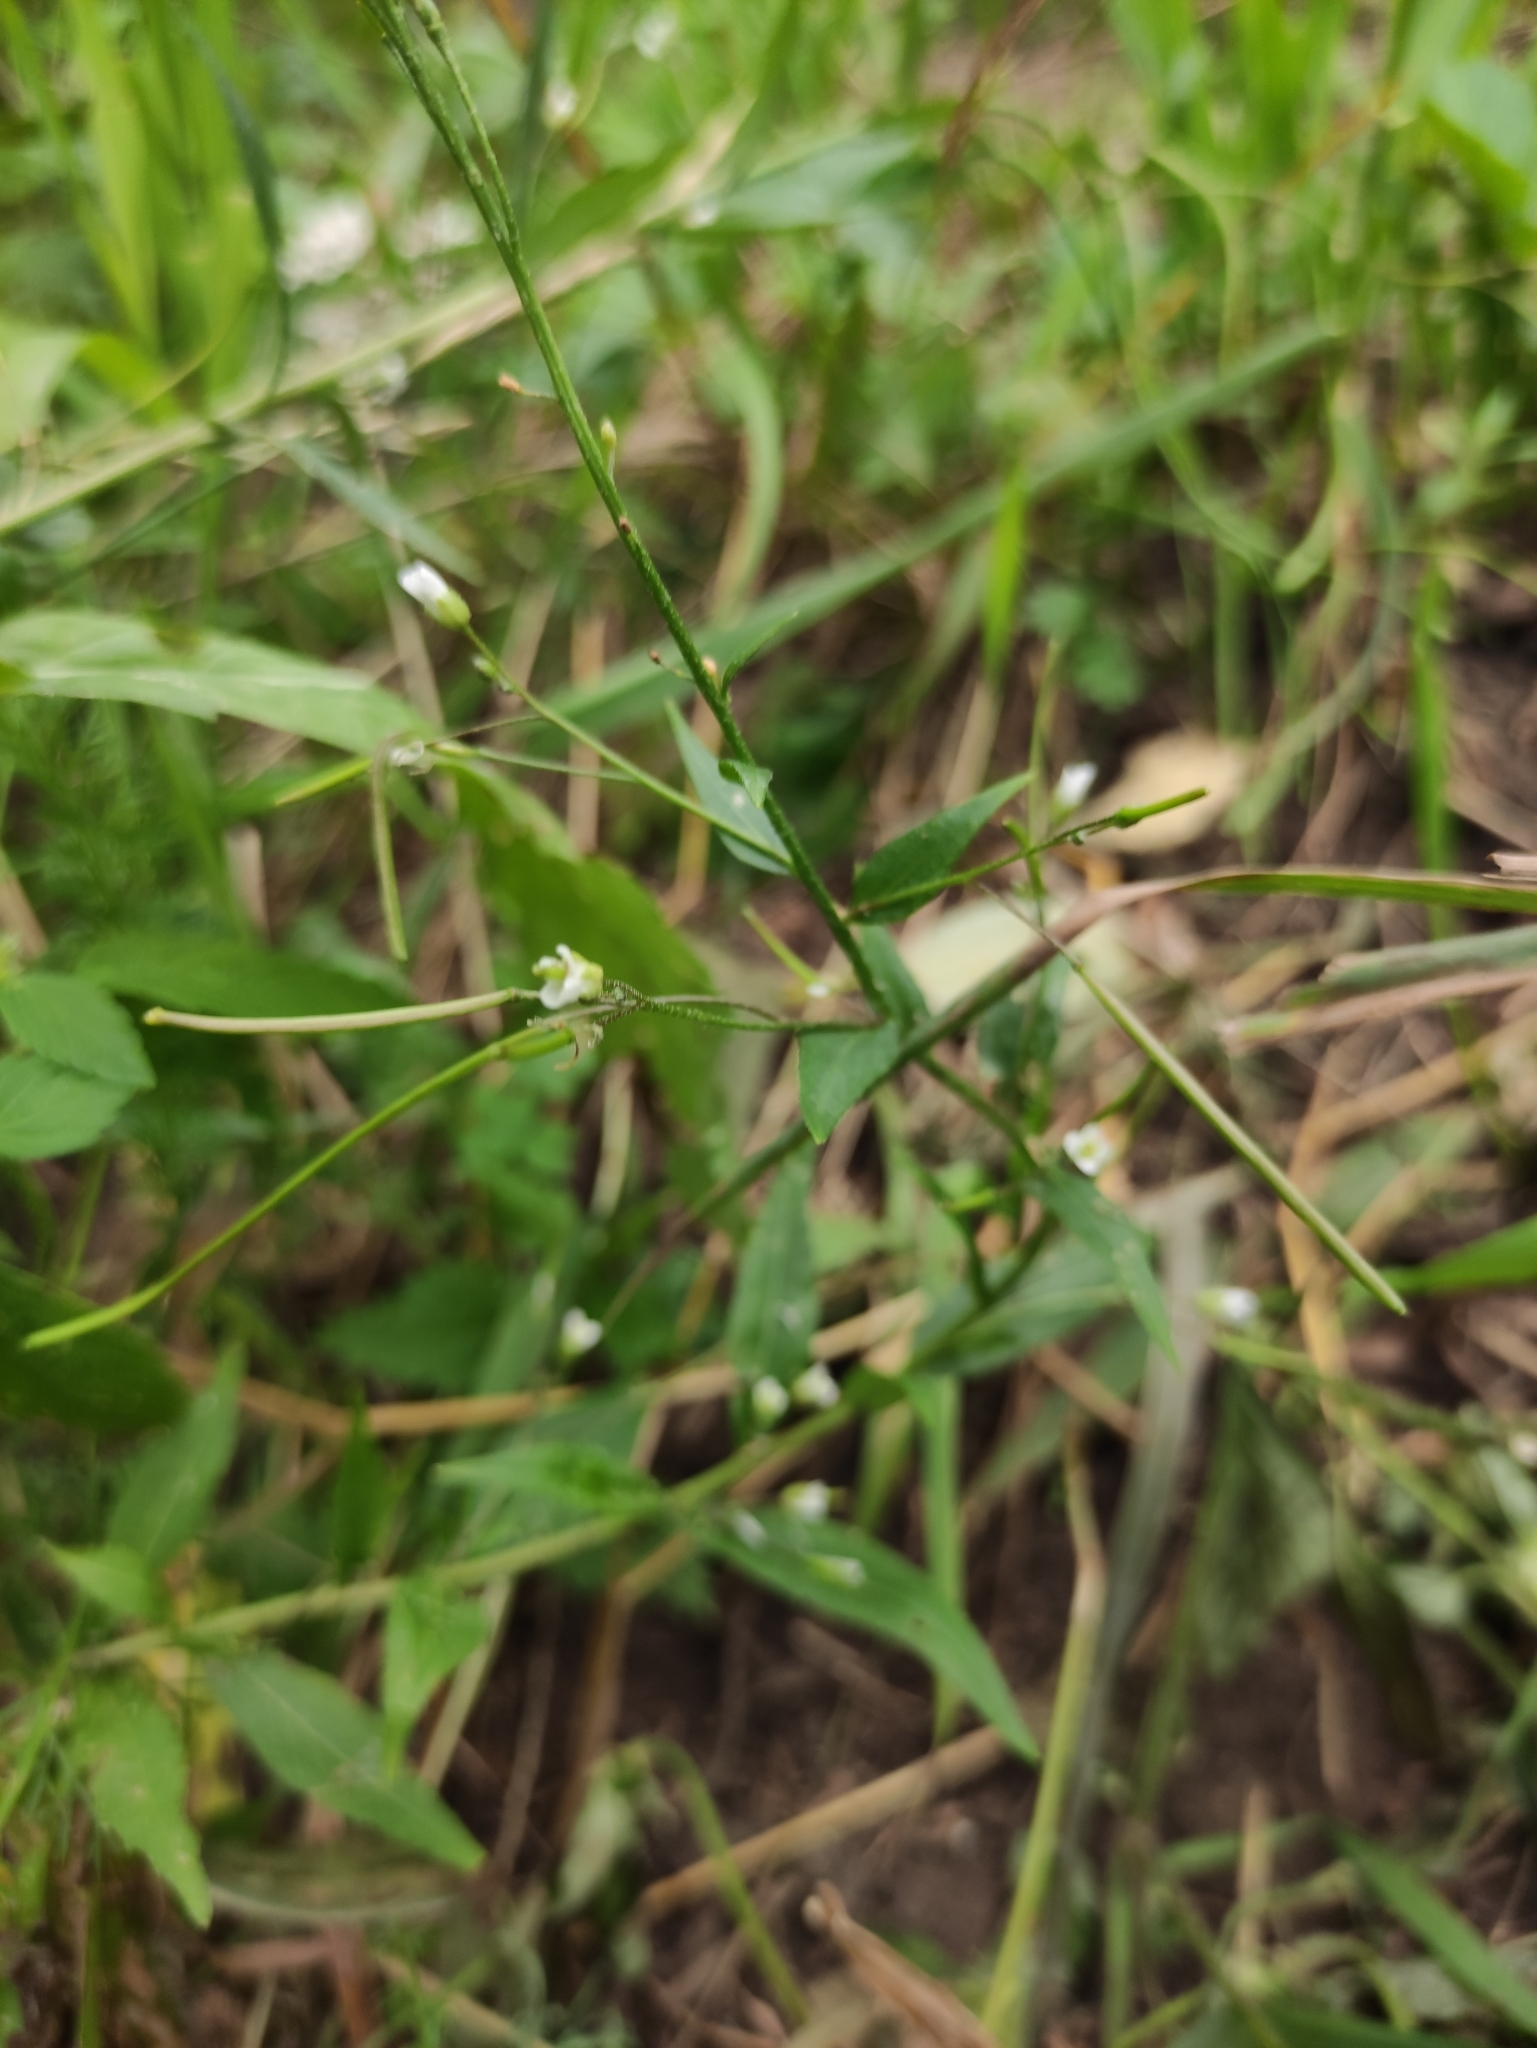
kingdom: Plantae
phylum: Tracheophyta
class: Magnoliopsida
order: Brassicales
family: Brassicaceae
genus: Catolobus
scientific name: Catolobus pendulus
